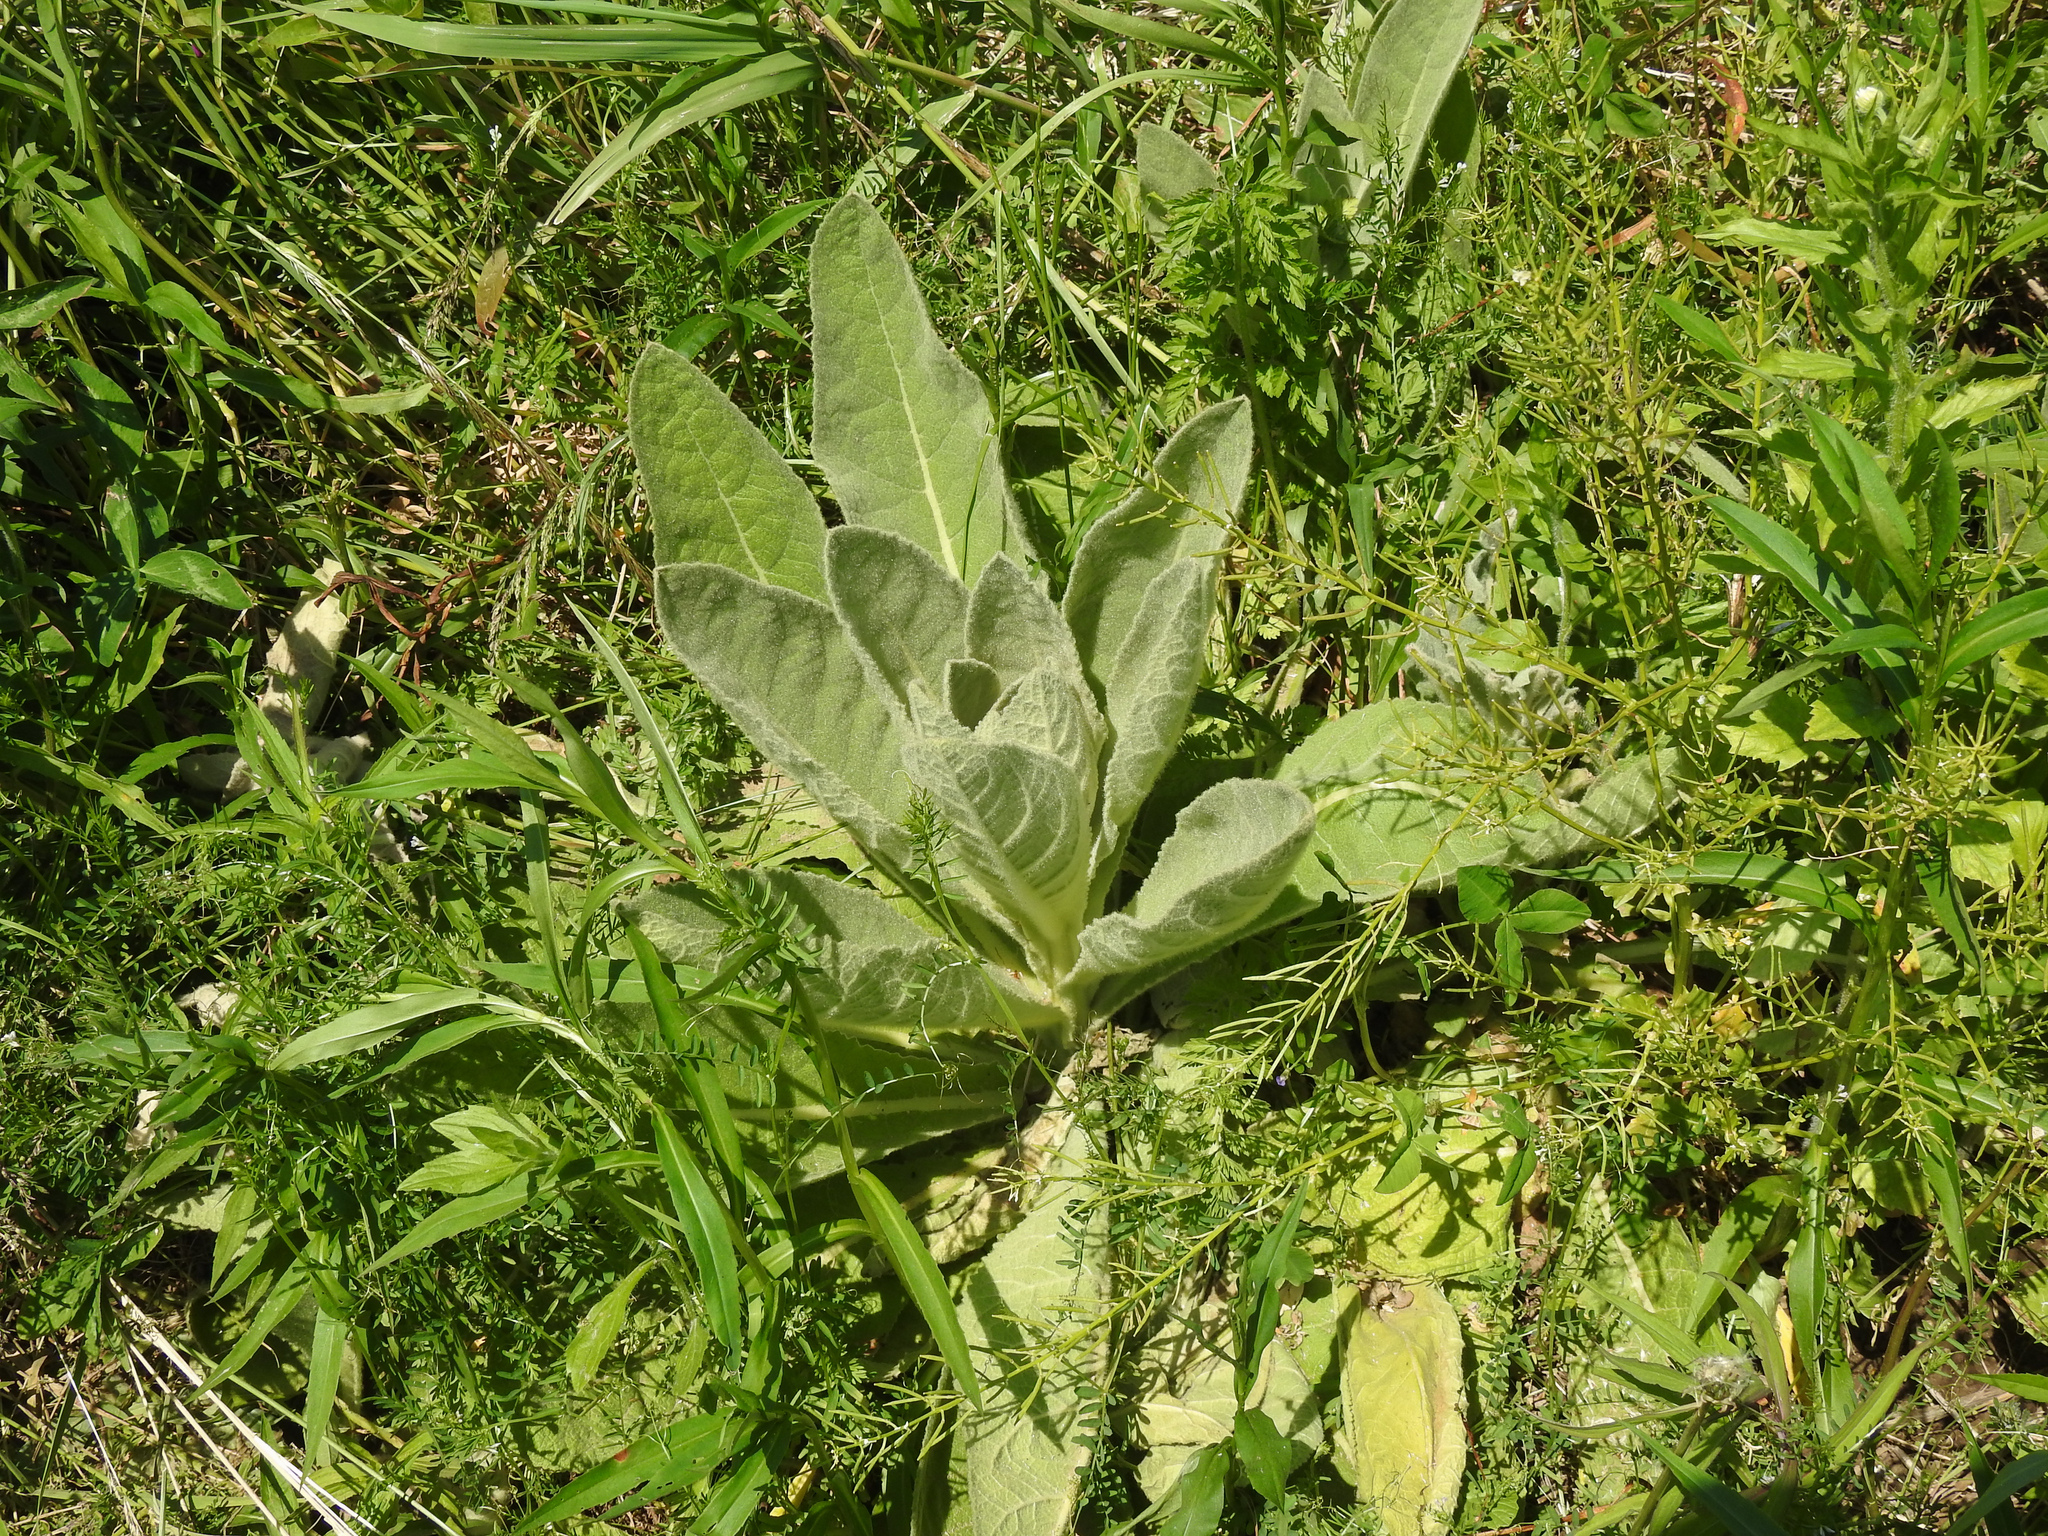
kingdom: Plantae
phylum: Tracheophyta
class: Magnoliopsida
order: Lamiales
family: Scrophulariaceae
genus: Verbascum
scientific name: Verbascum thapsus
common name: Common mullein
